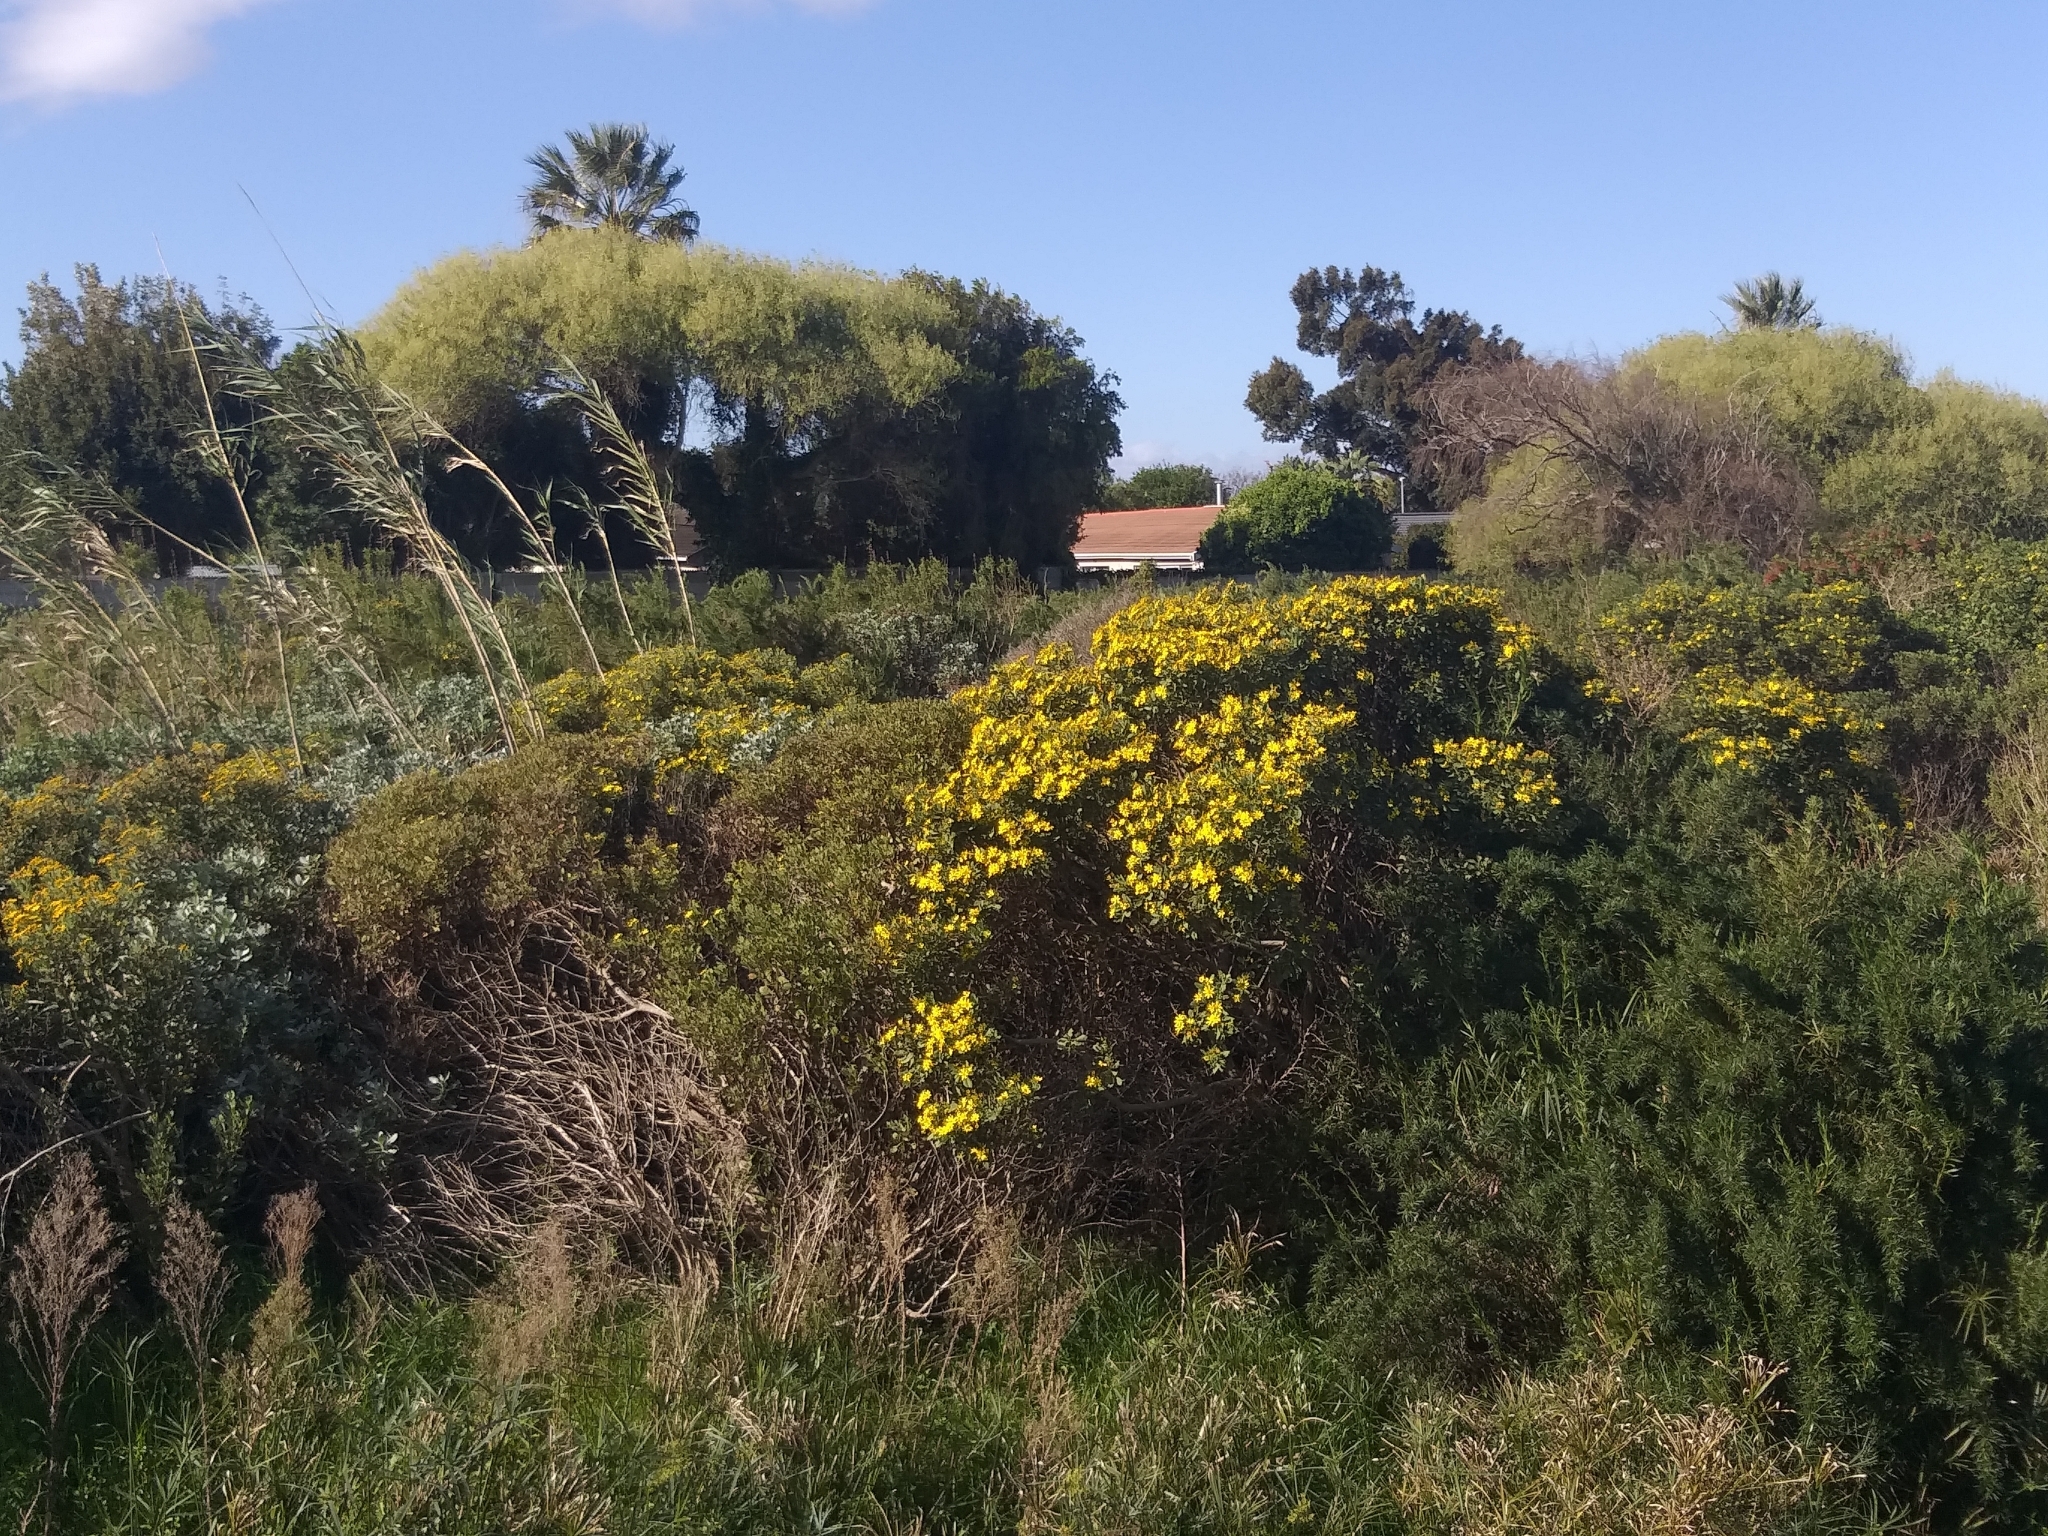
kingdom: Plantae
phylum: Tracheophyta
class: Magnoliopsida
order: Asterales
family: Asteraceae
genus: Osteospermum
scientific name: Osteospermum moniliferum
